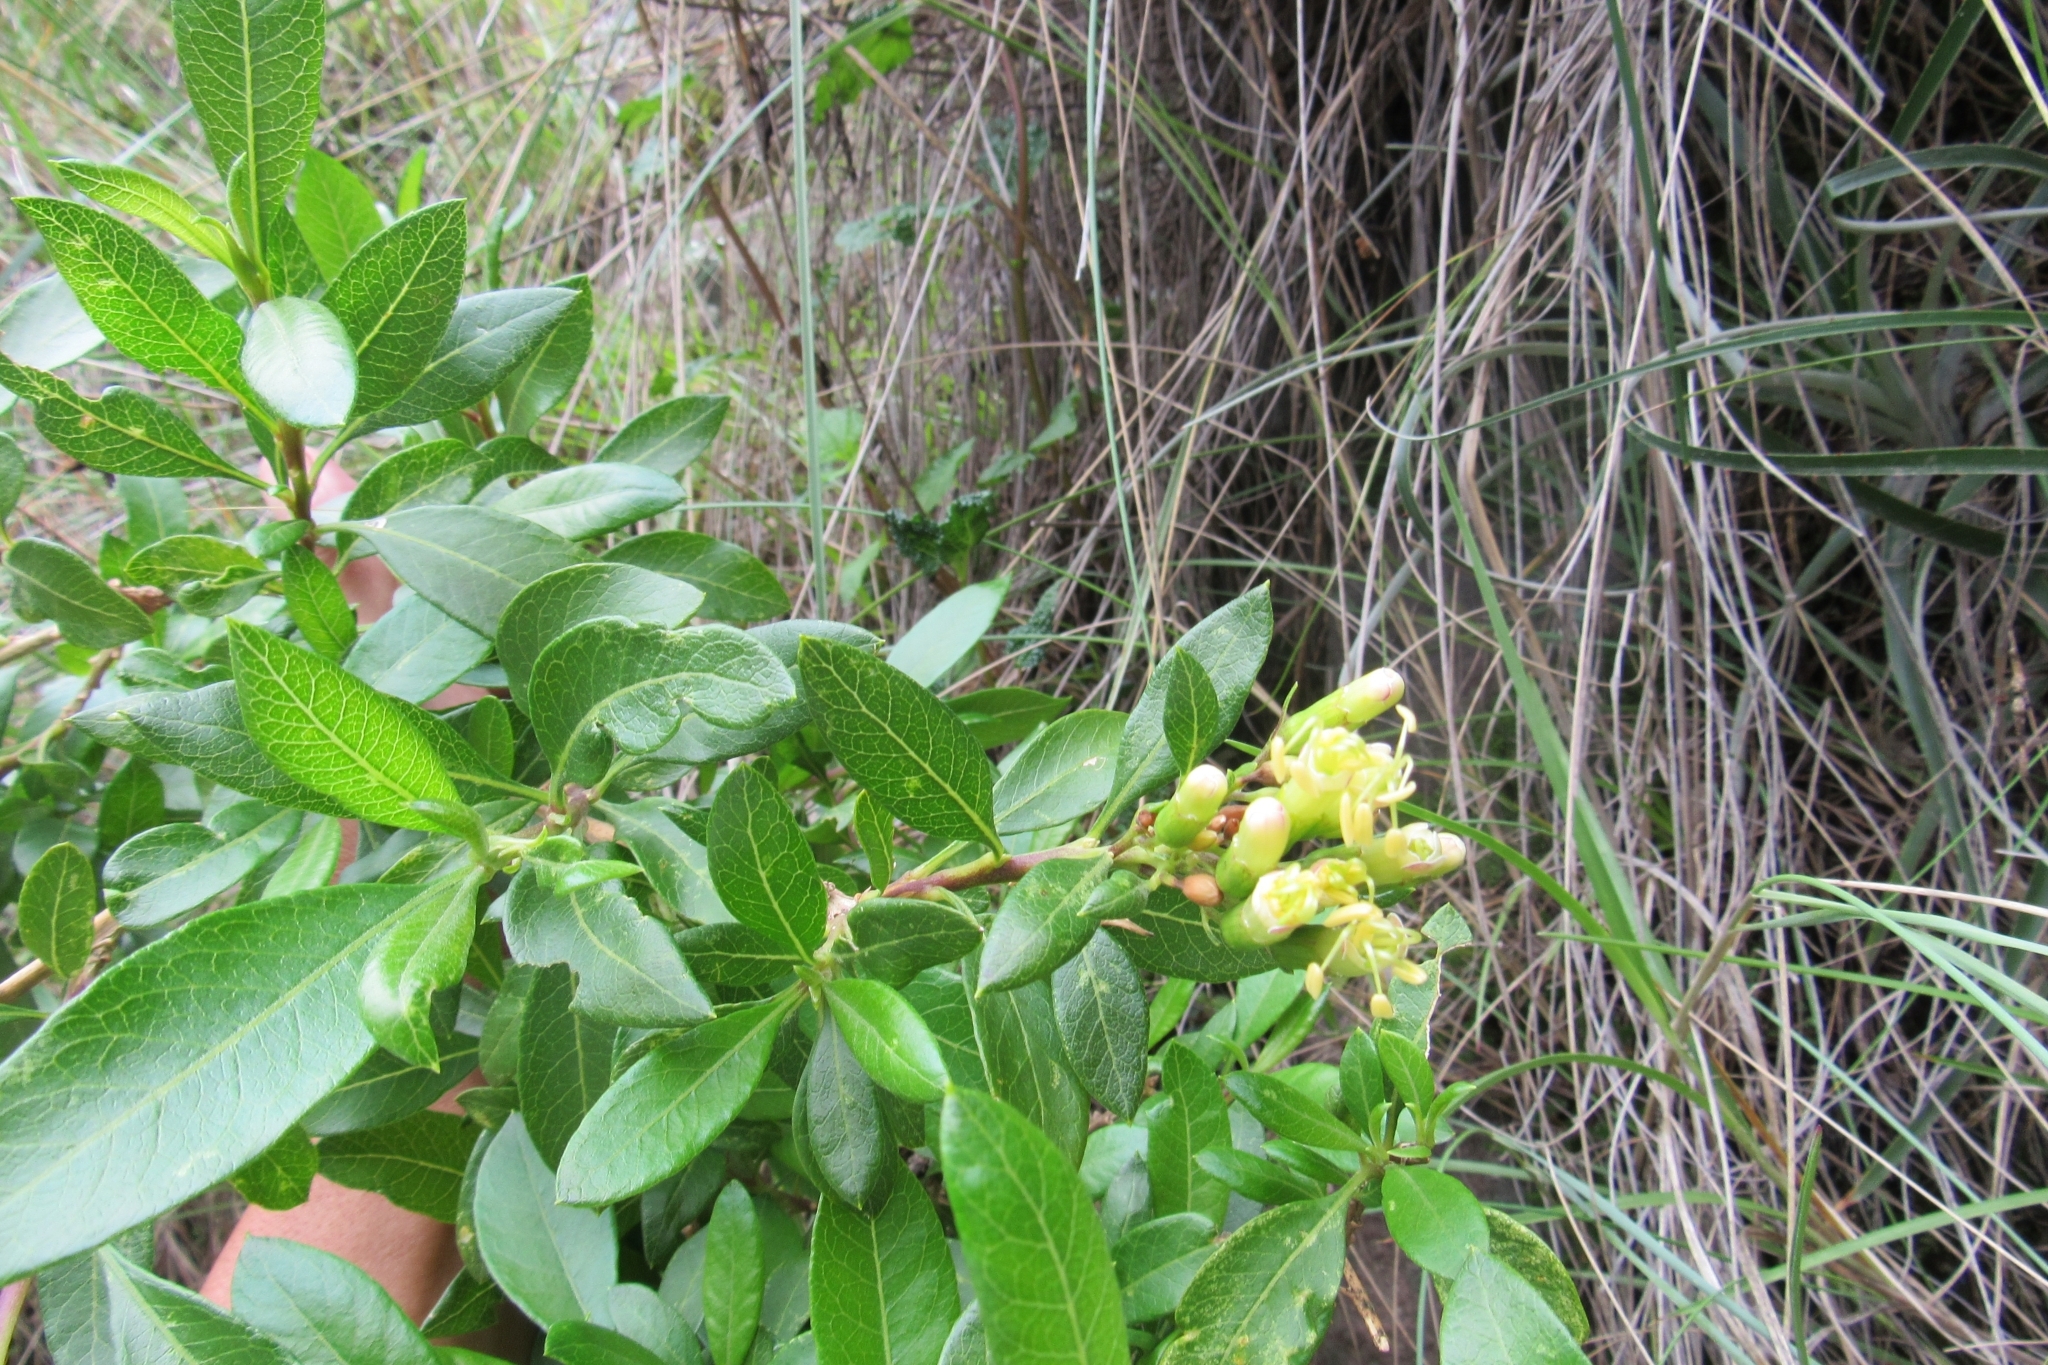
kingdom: Plantae
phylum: Tracheophyta
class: Magnoliopsida
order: Ericales
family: Polemoniaceae
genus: Cantua
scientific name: Cantua flexuosa
